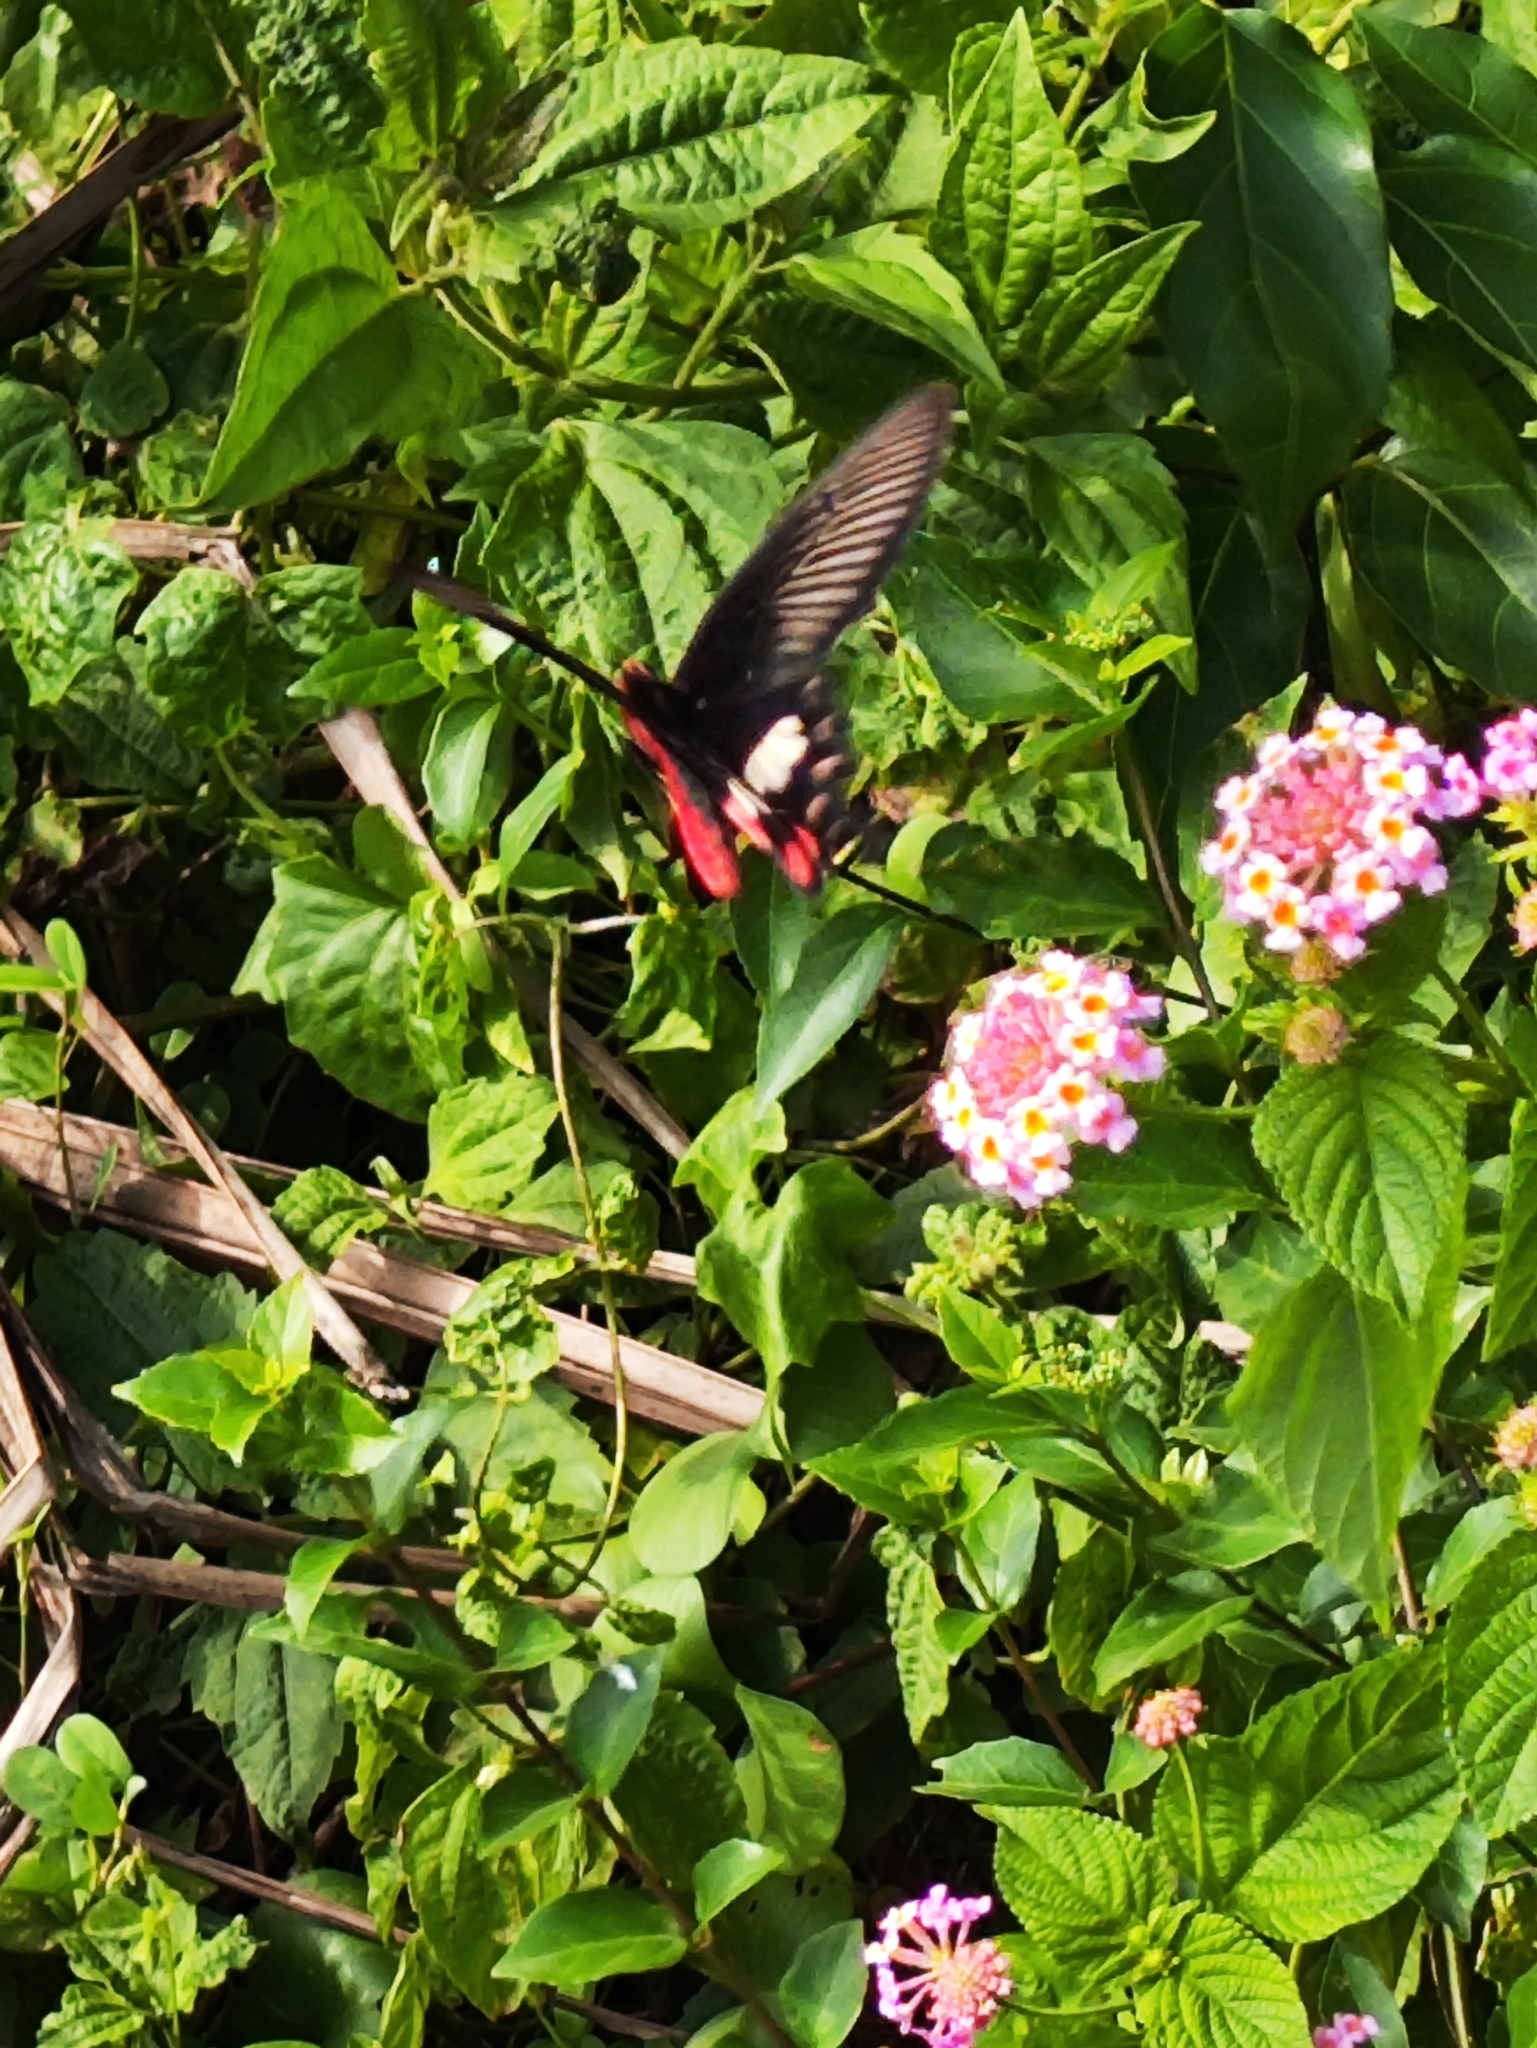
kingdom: Animalia
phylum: Arthropoda
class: Insecta
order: Lepidoptera
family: Papilionidae
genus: Pachliopta
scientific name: Pachliopta aristolochiae
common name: Common rose
